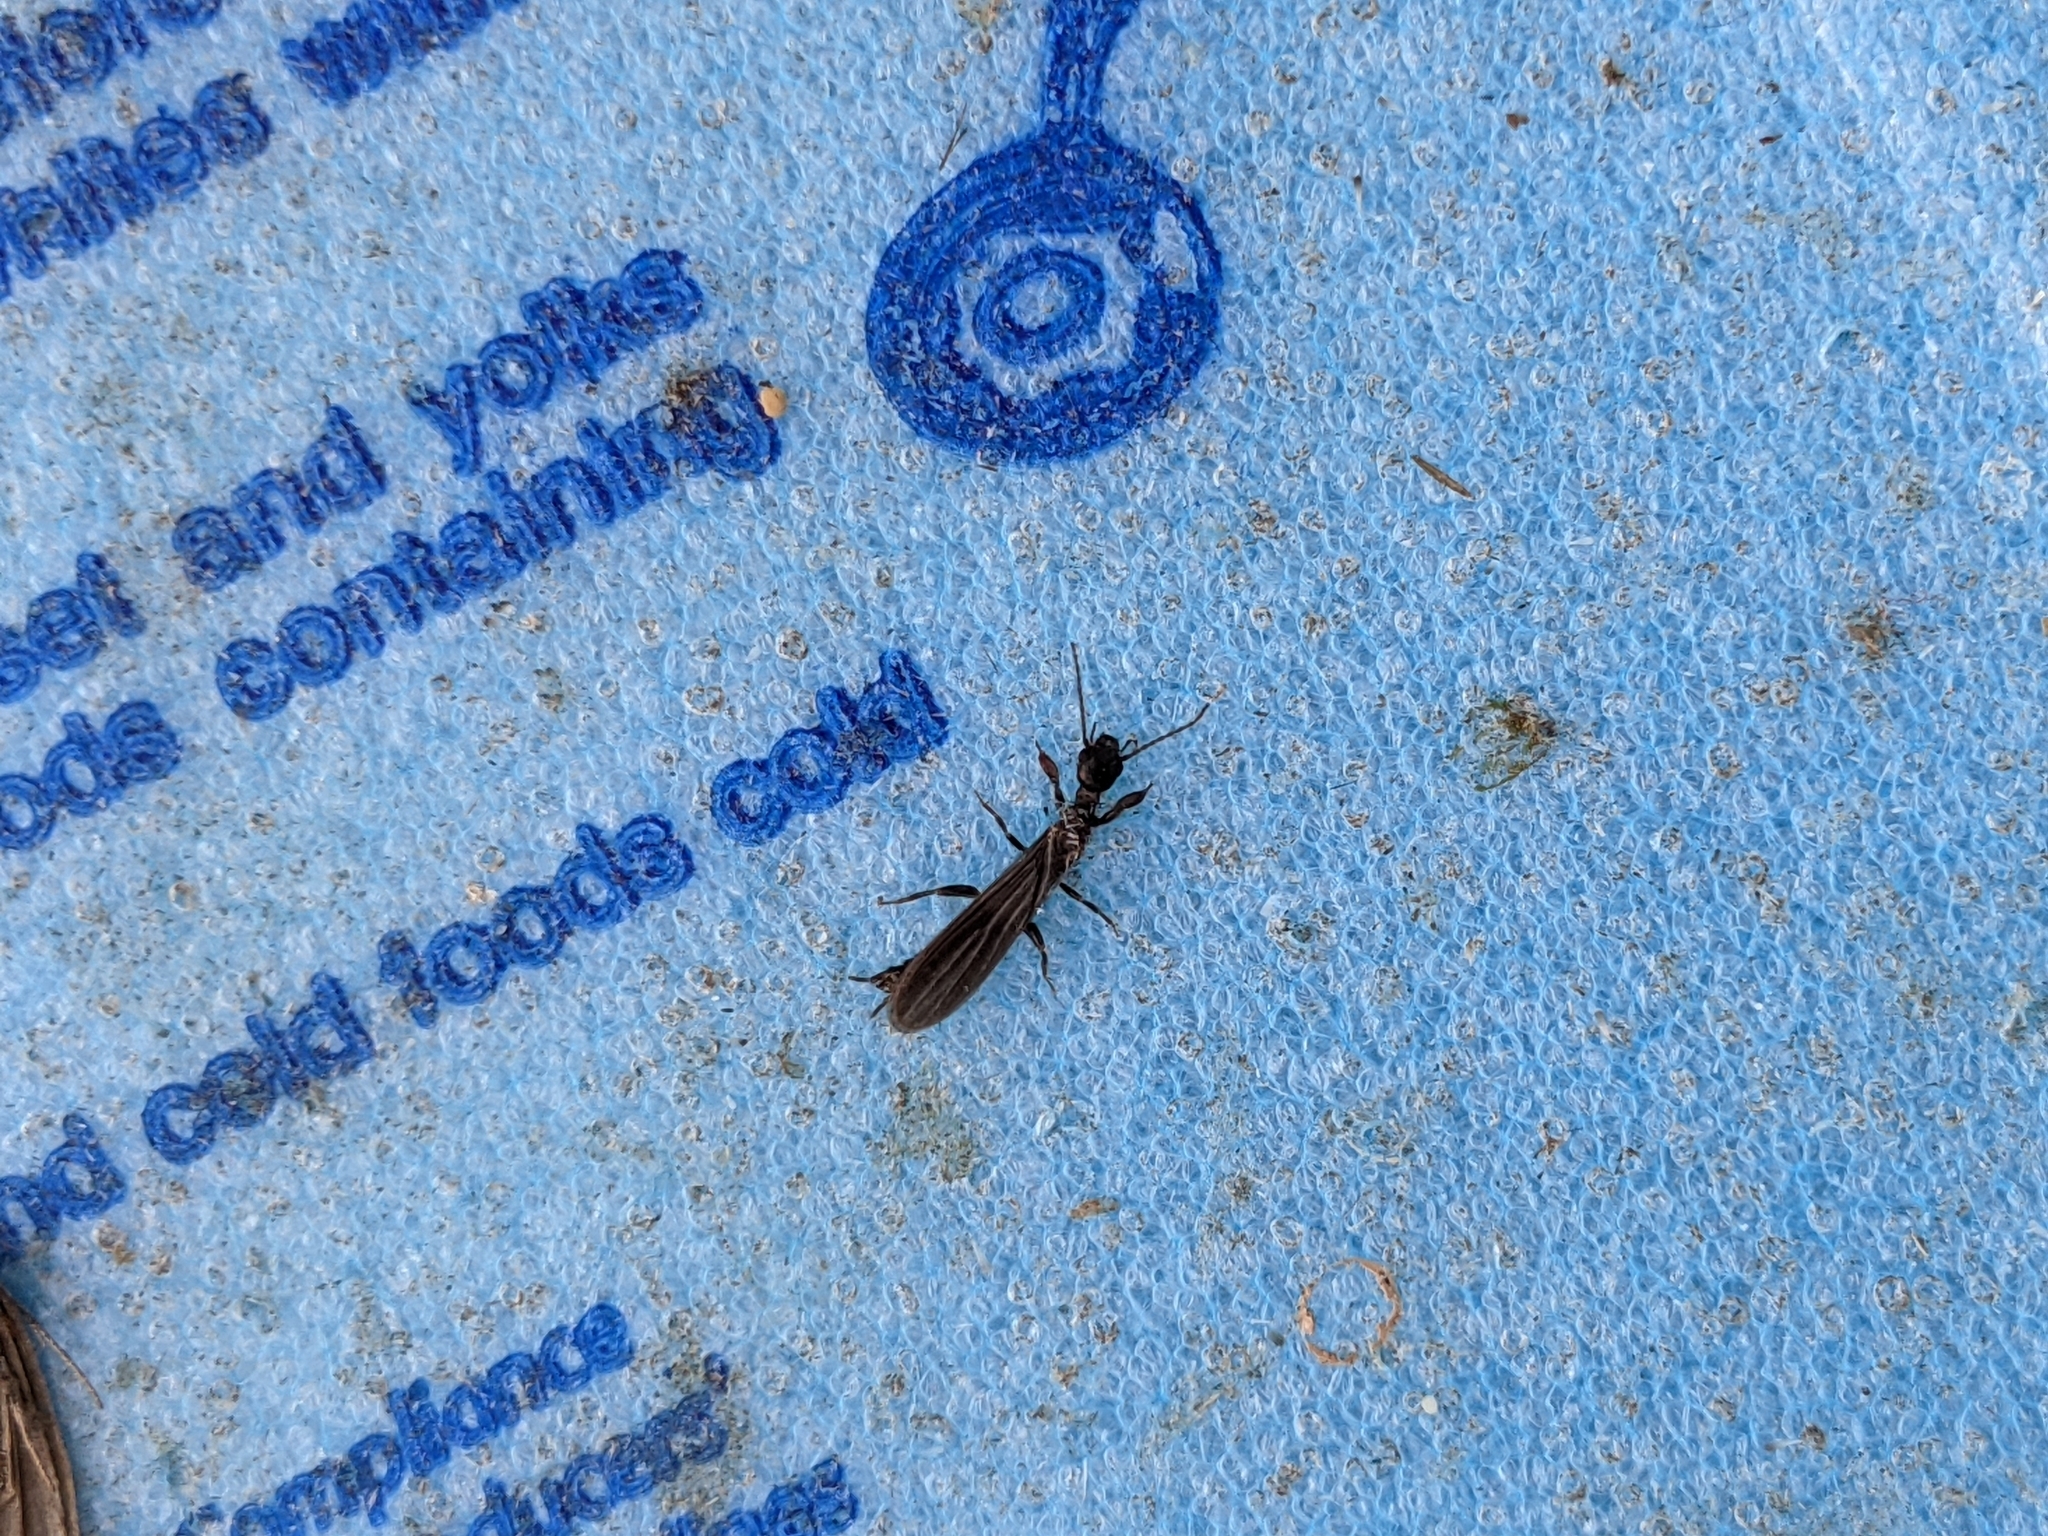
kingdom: Animalia
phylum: Arthropoda
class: Insecta
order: Embioptera
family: Oligotomidae
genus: Oligotoma
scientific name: Oligotoma nigra
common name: Black webspinner
